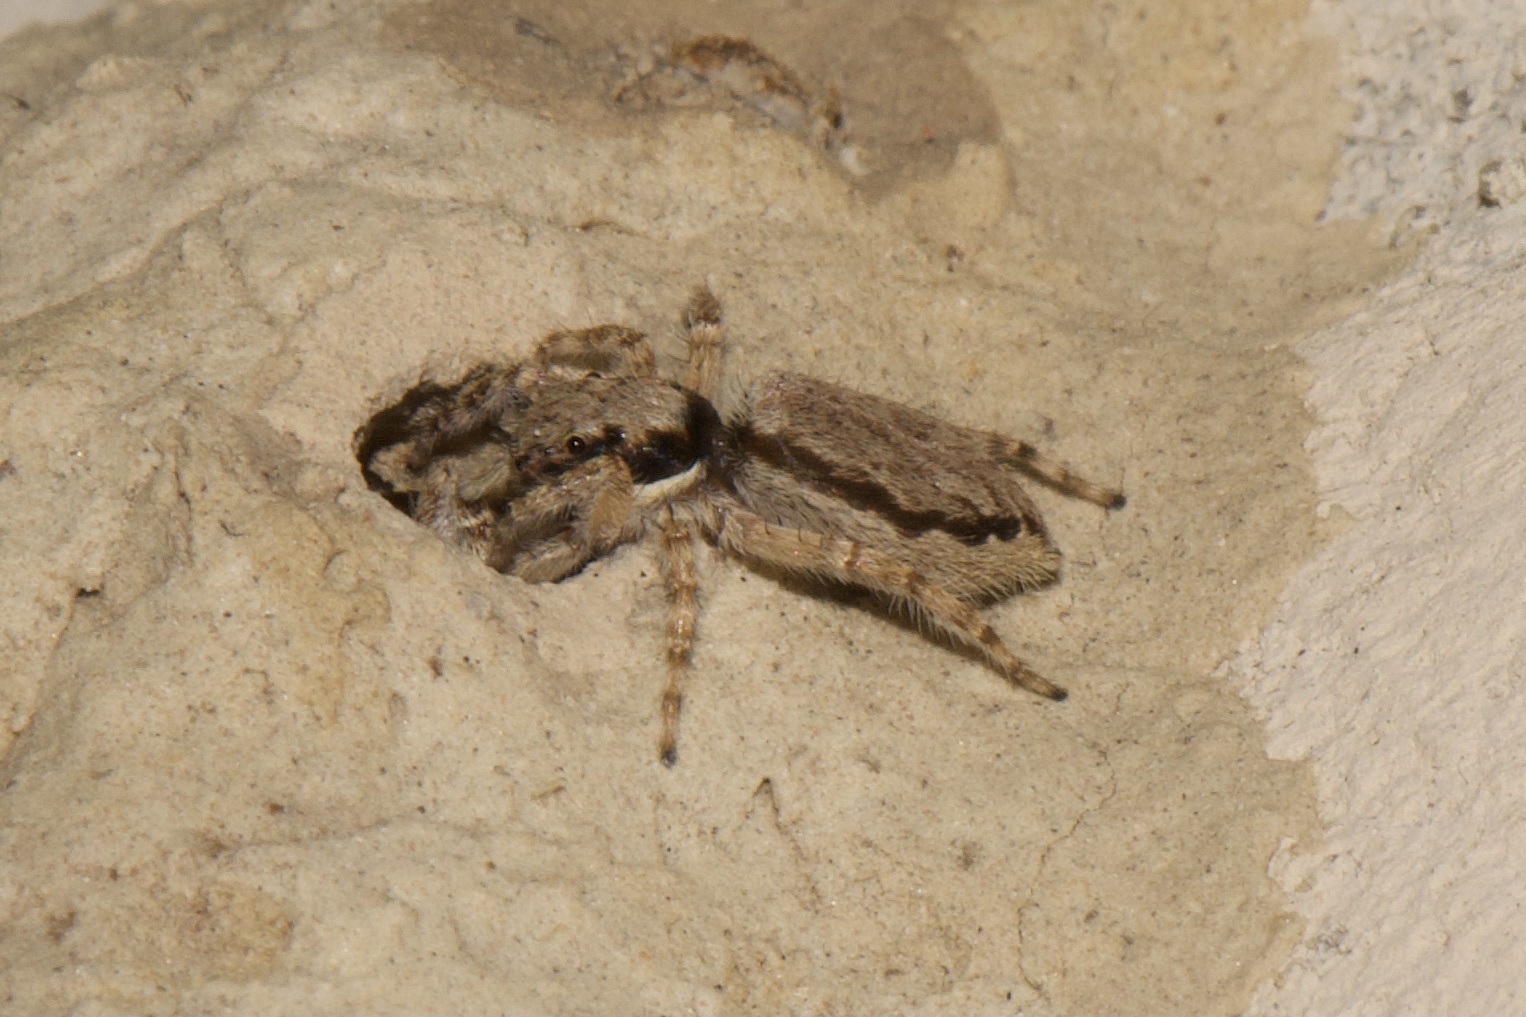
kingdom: Animalia
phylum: Arthropoda
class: Arachnida
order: Araneae
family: Salticidae
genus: Menemerus
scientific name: Menemerus bivittatus
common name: Gray wall jumper
